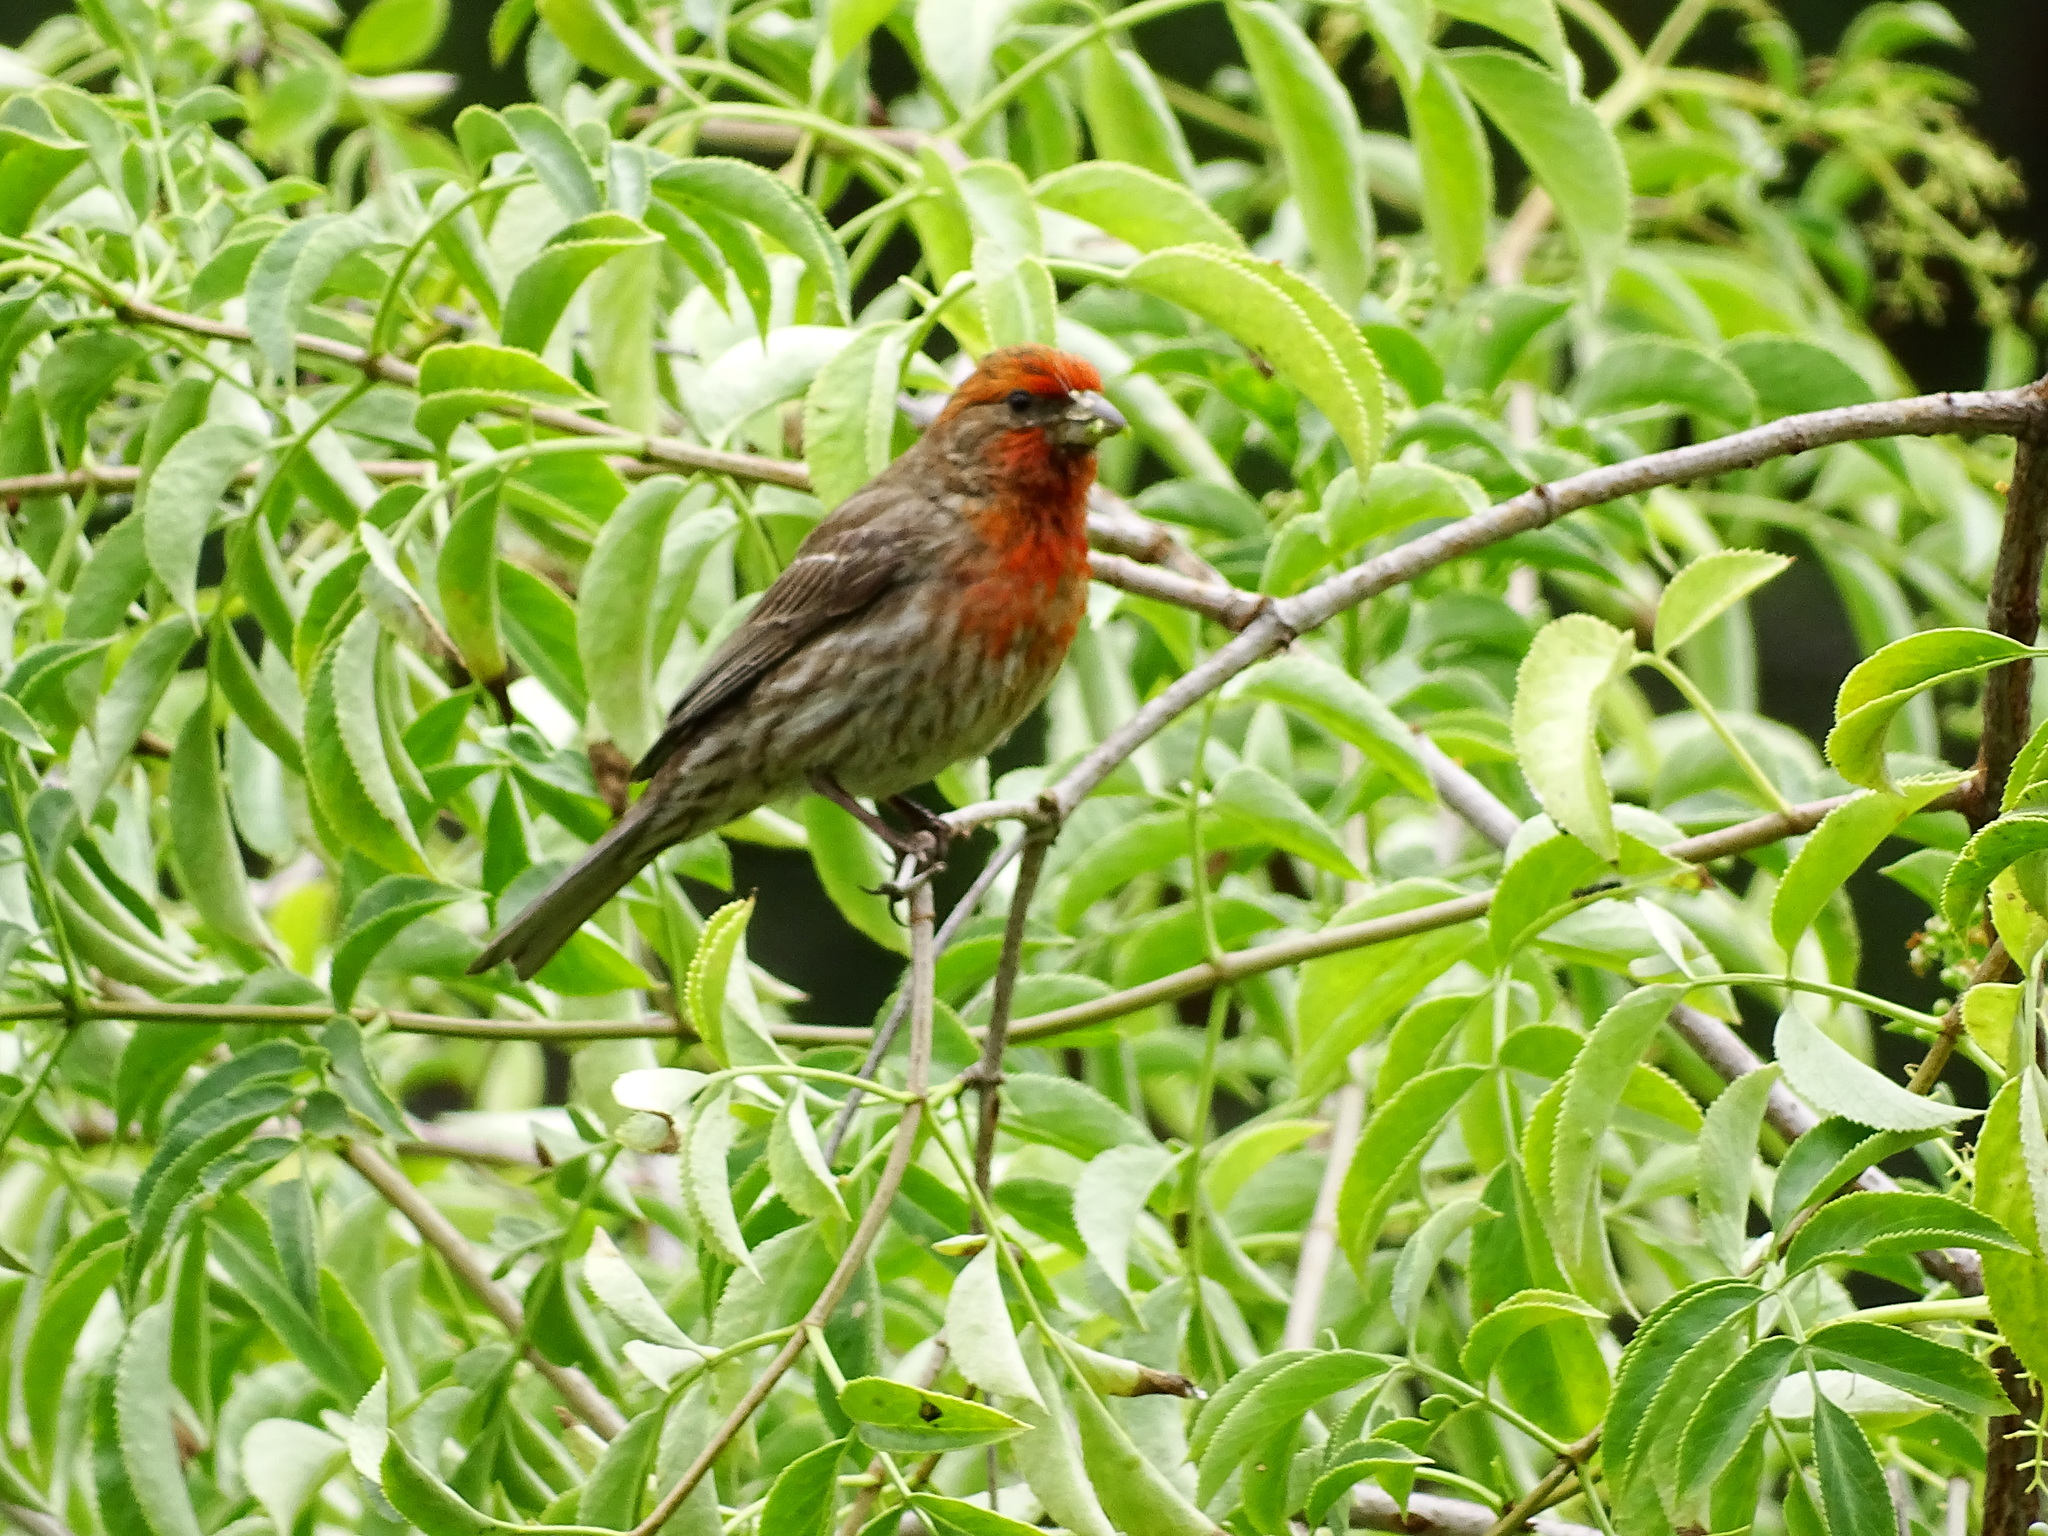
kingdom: Animalia
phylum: Chordata
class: Aves
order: Passeriformes
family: Fringillidae
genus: Haemorhous
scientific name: Haemorhous mexicanus
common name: House finch
